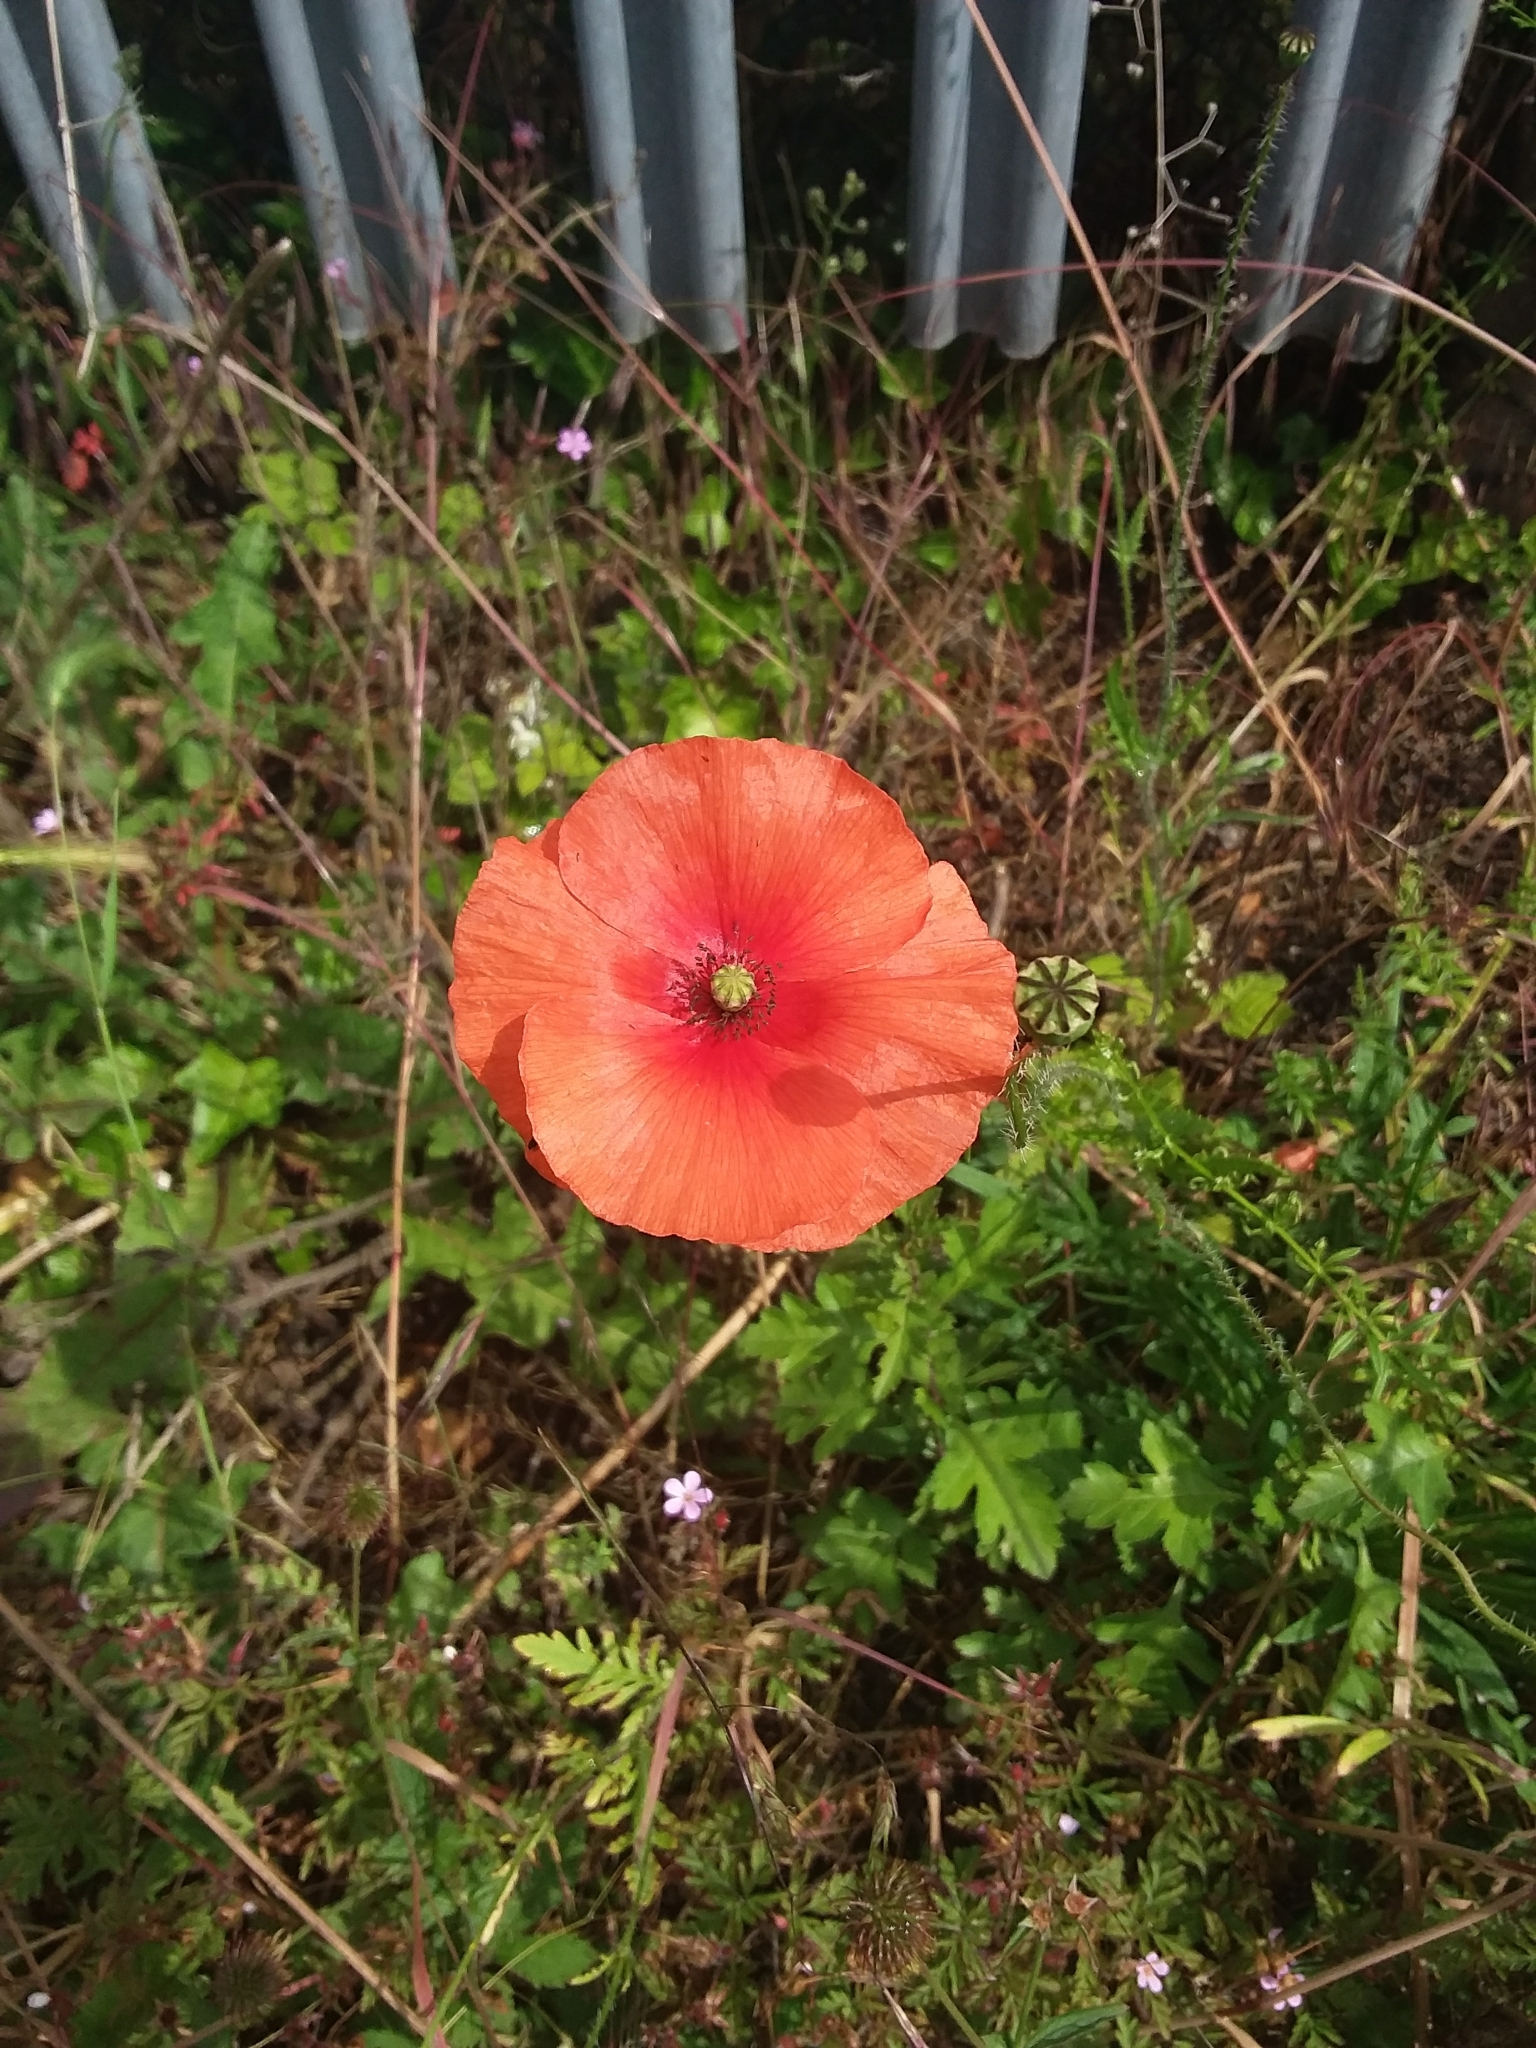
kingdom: Plantae
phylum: Tracheophyta
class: Magnoliopsida
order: Ranunculales
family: Papaveraceae
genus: Papaver
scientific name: Papaver rhoeas
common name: Corn poppy
